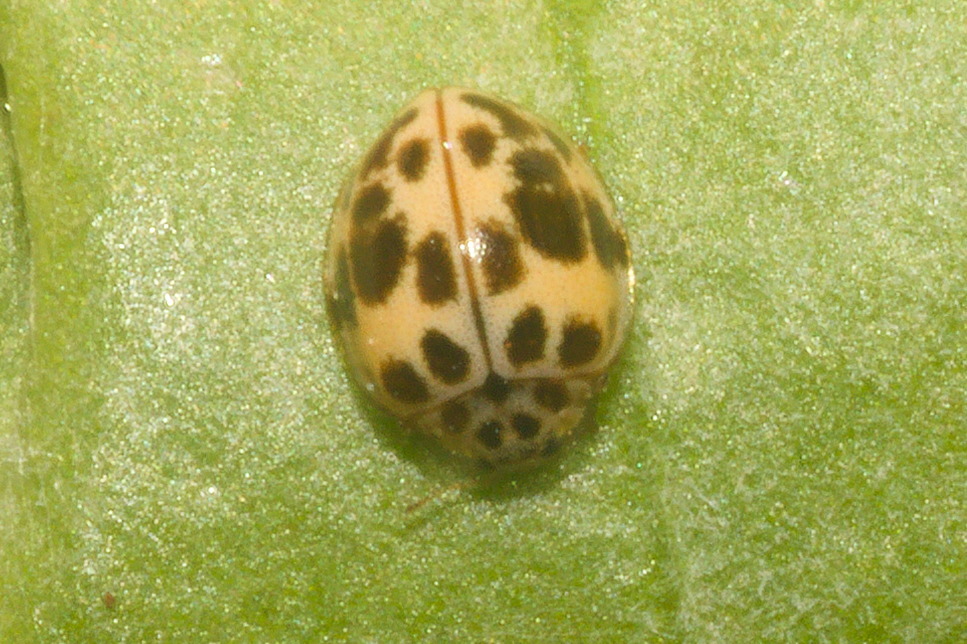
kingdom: Animalia
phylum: Arthropoda
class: Insecta
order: Coleoptera
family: Coccinellidae
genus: Psyllobora
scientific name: Psyllobora
